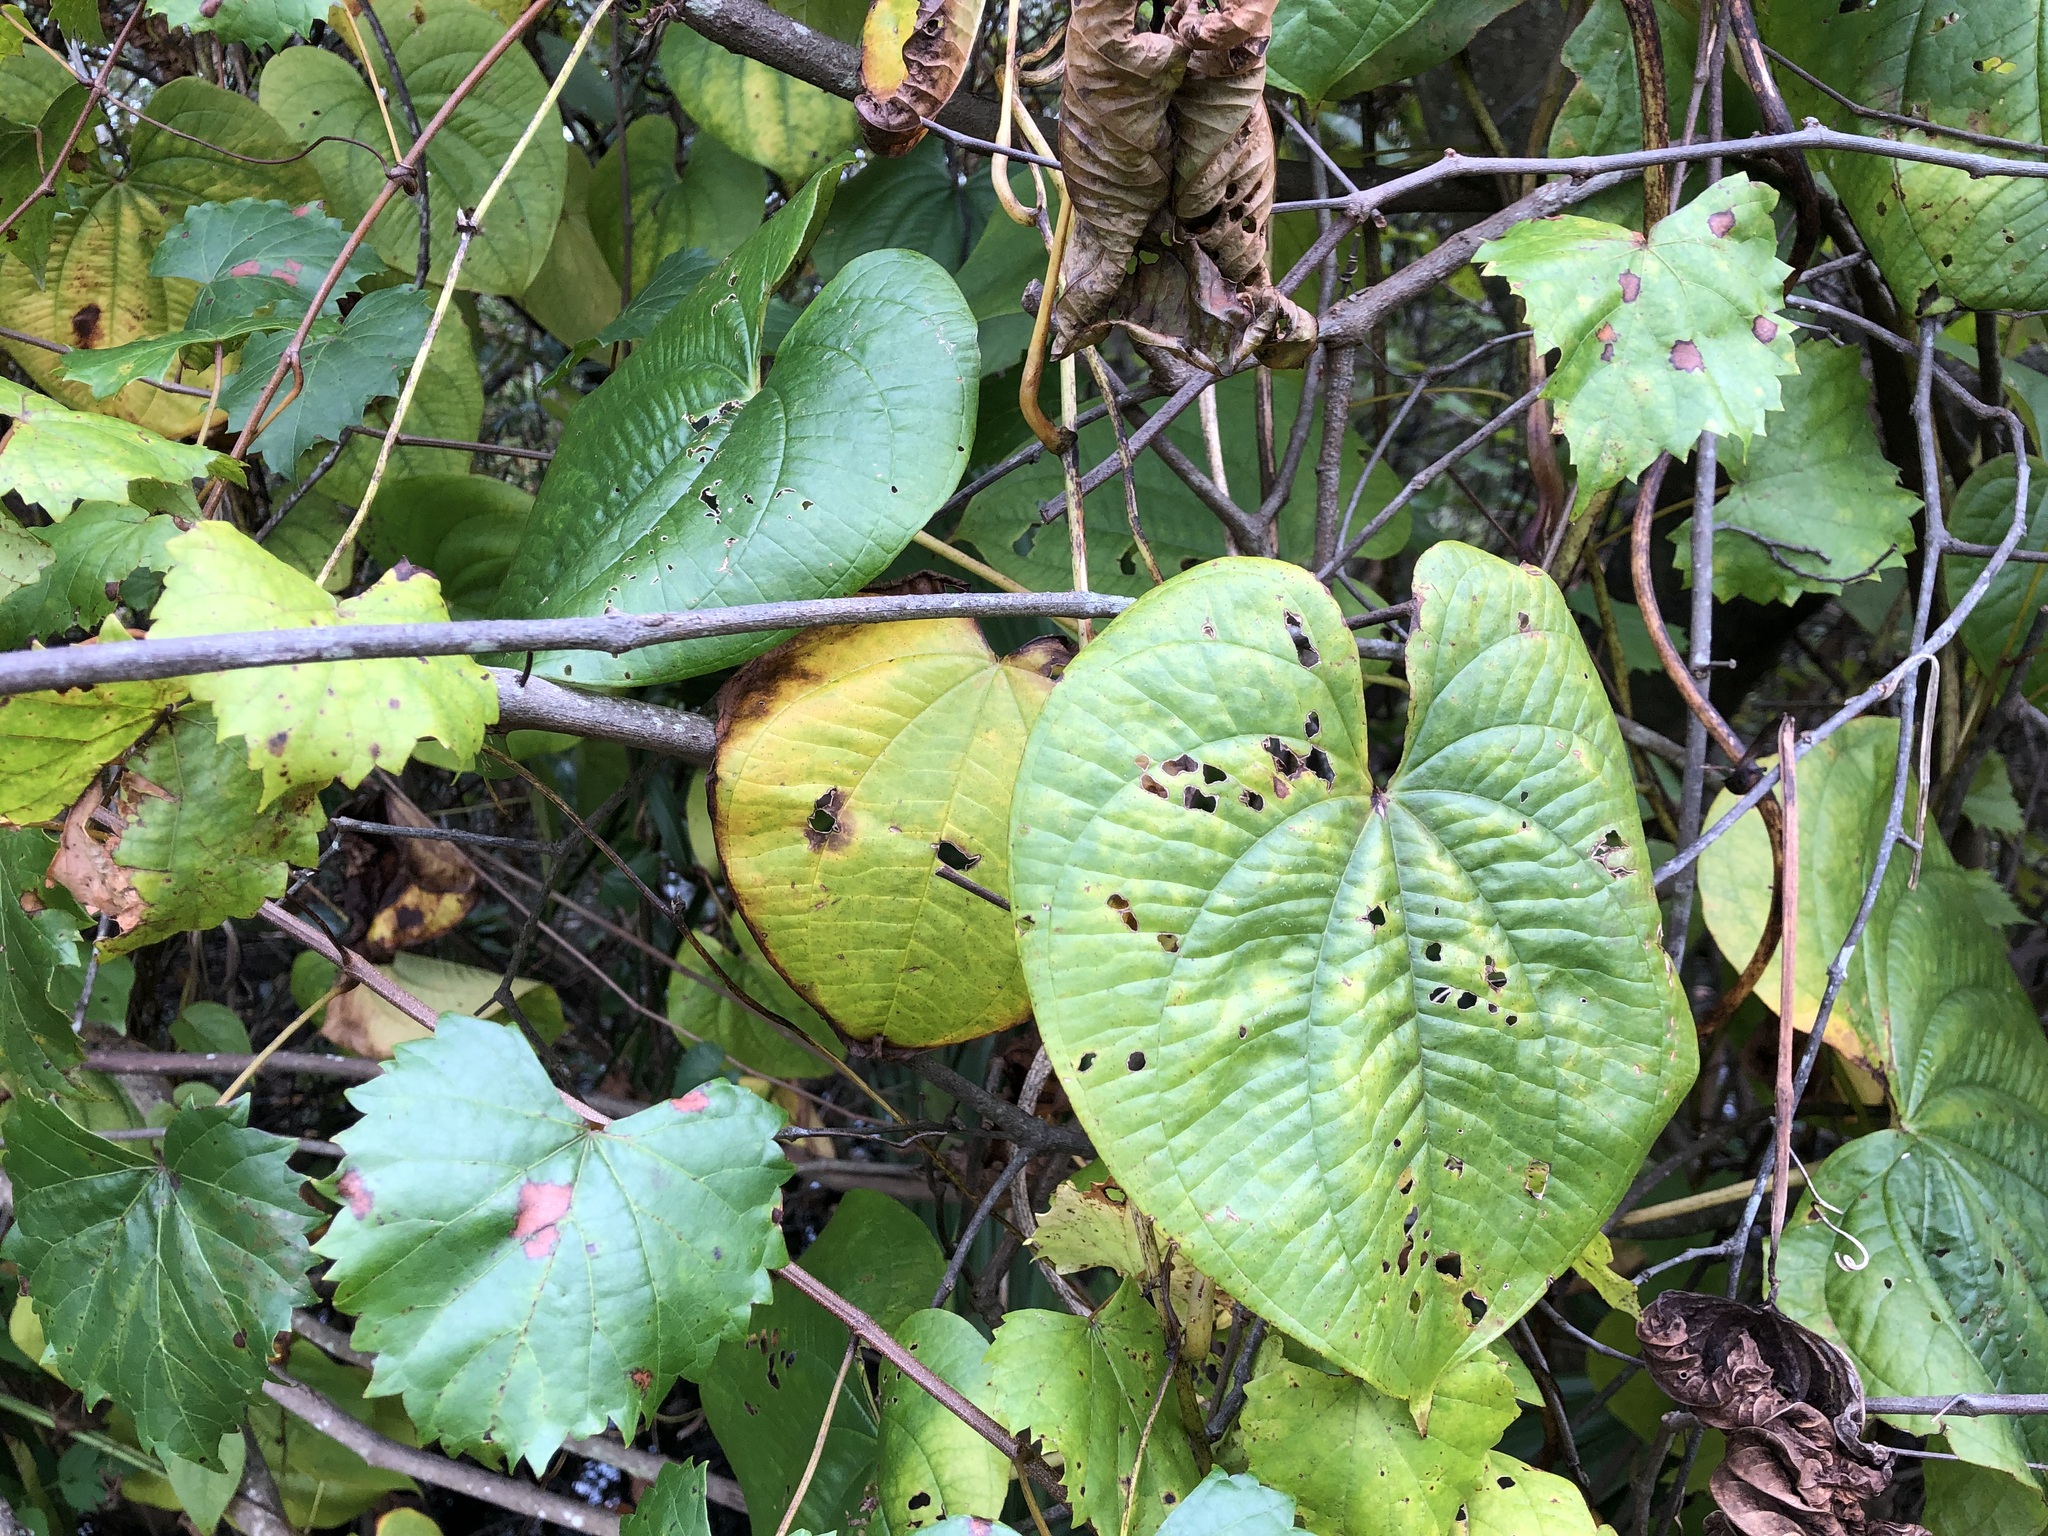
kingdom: Plantae
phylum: Tracheophyta
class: Liliopsida
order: Dioscoreales
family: Dioscoreaceae
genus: Dioscorea
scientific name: Dioscorea bulbifera
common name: Air yam
